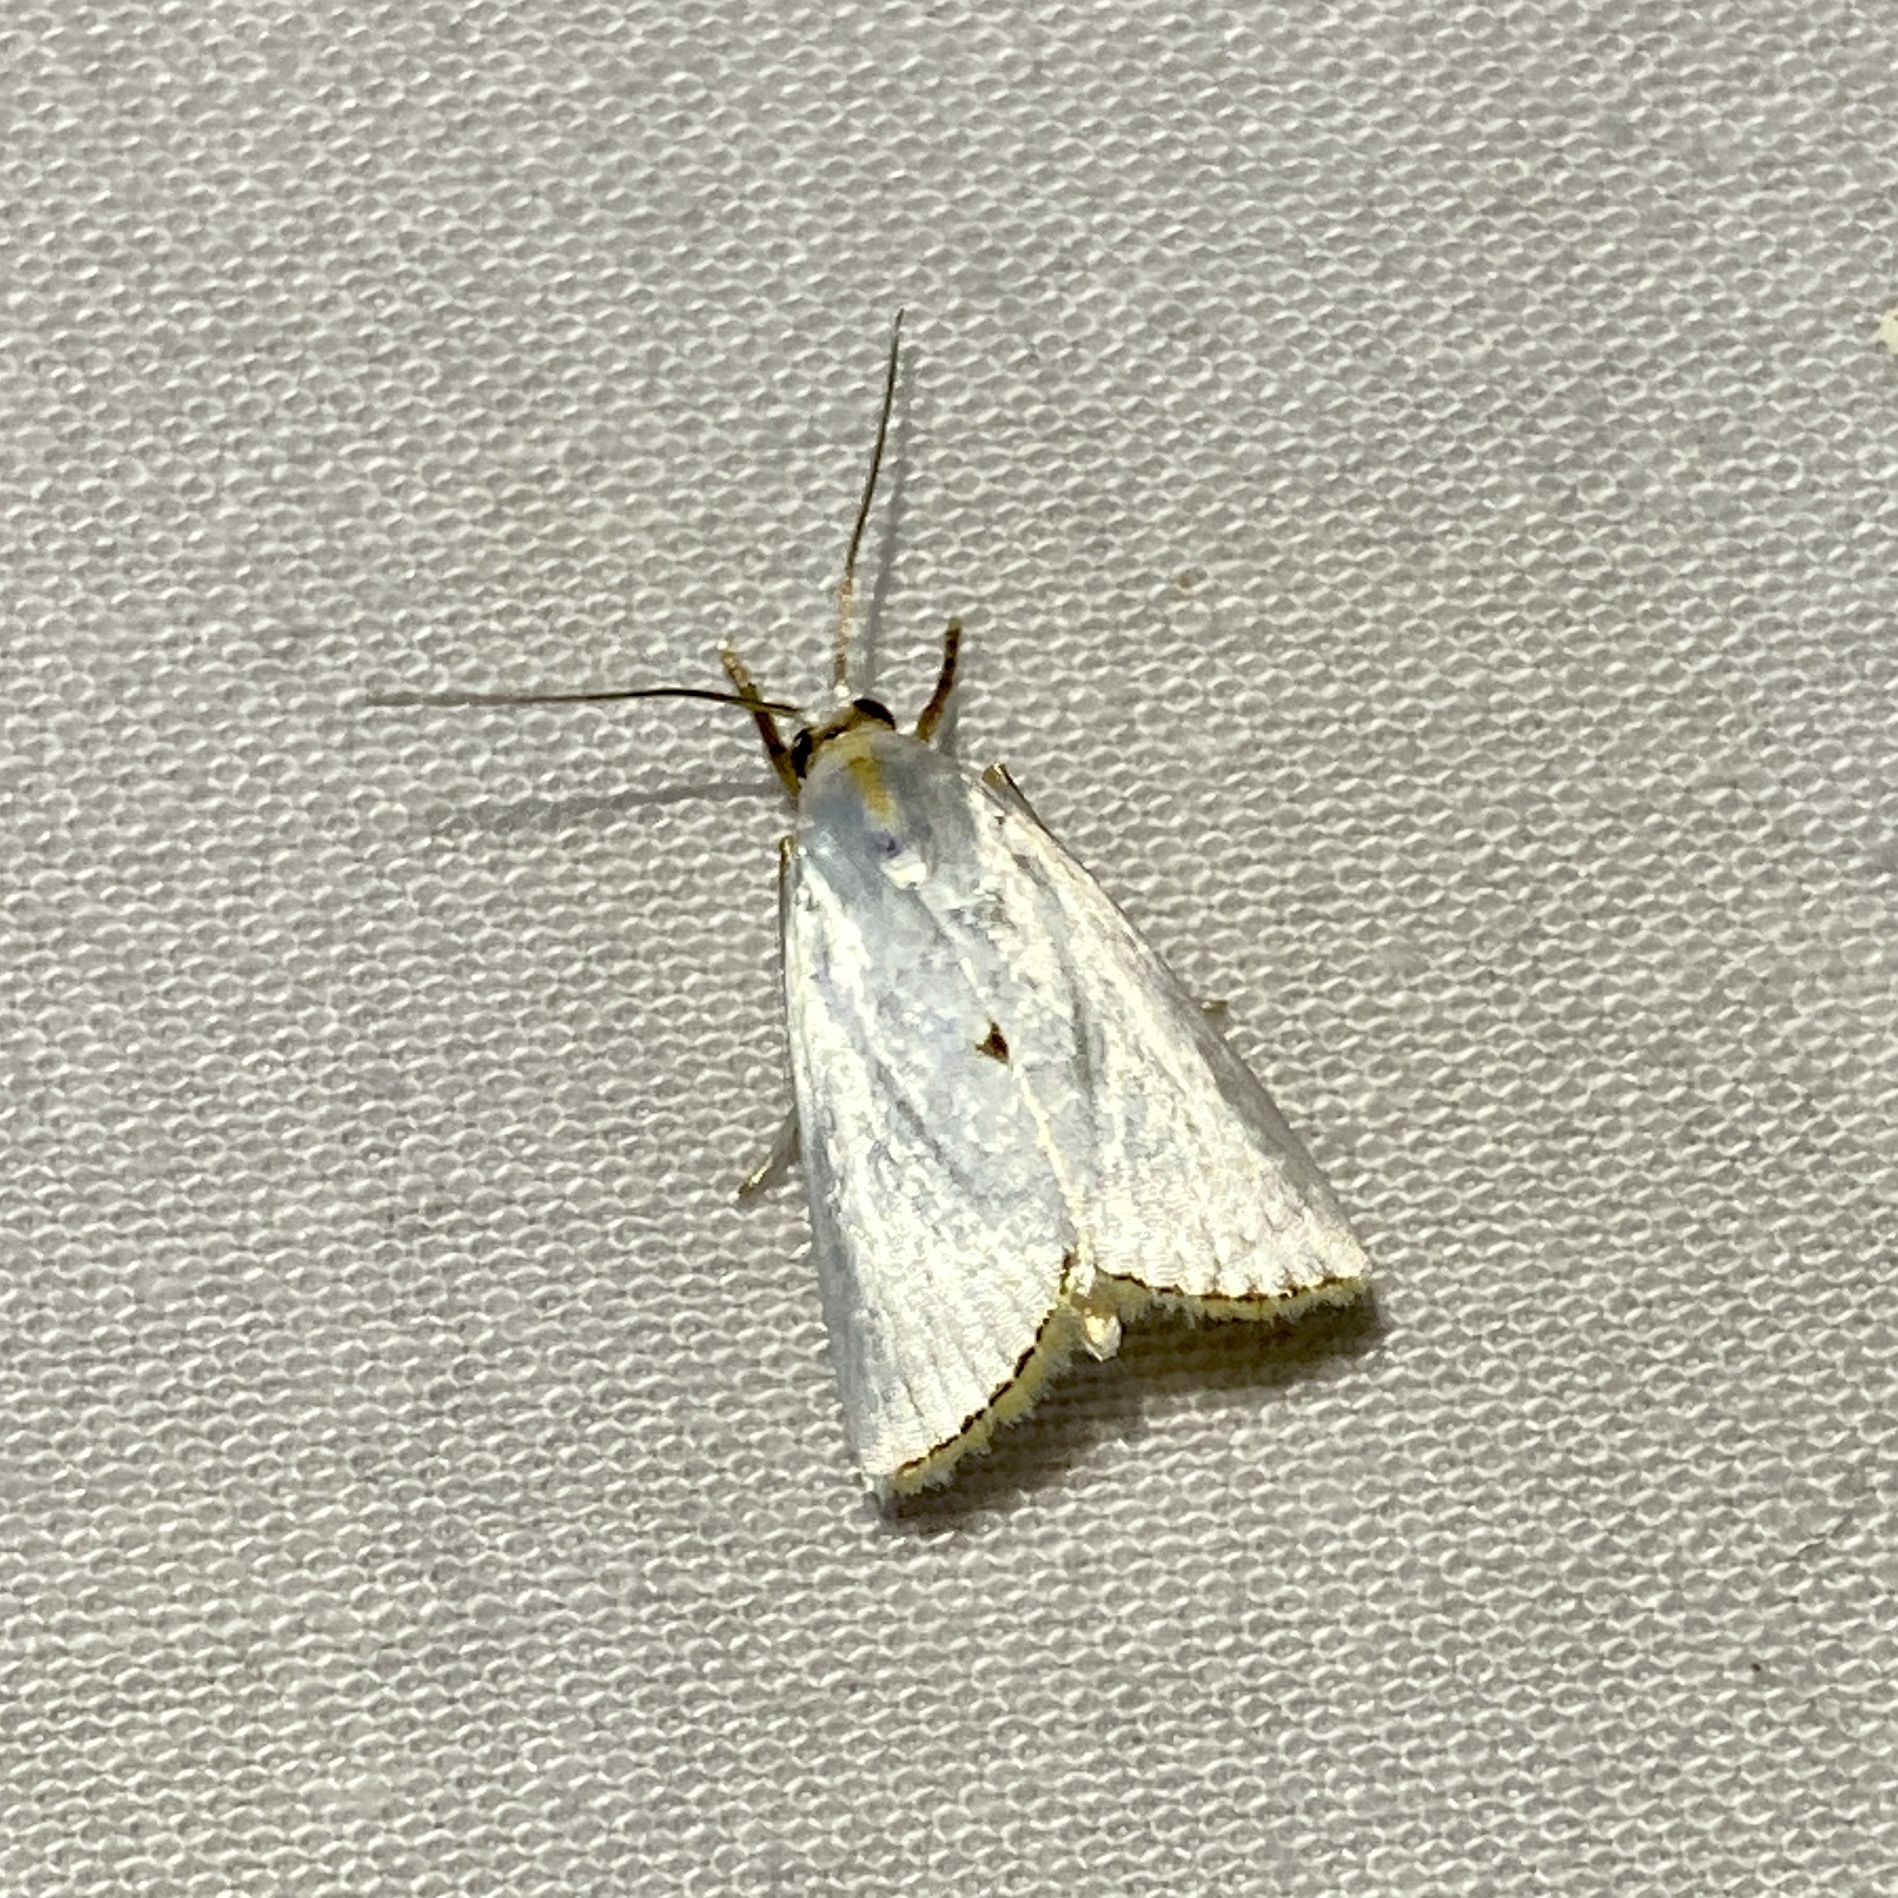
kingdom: Animalia
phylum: Arthropoda
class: Insecta
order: Lepidoptera
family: Crambidae
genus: Argyria
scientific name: Argyria nivalis
